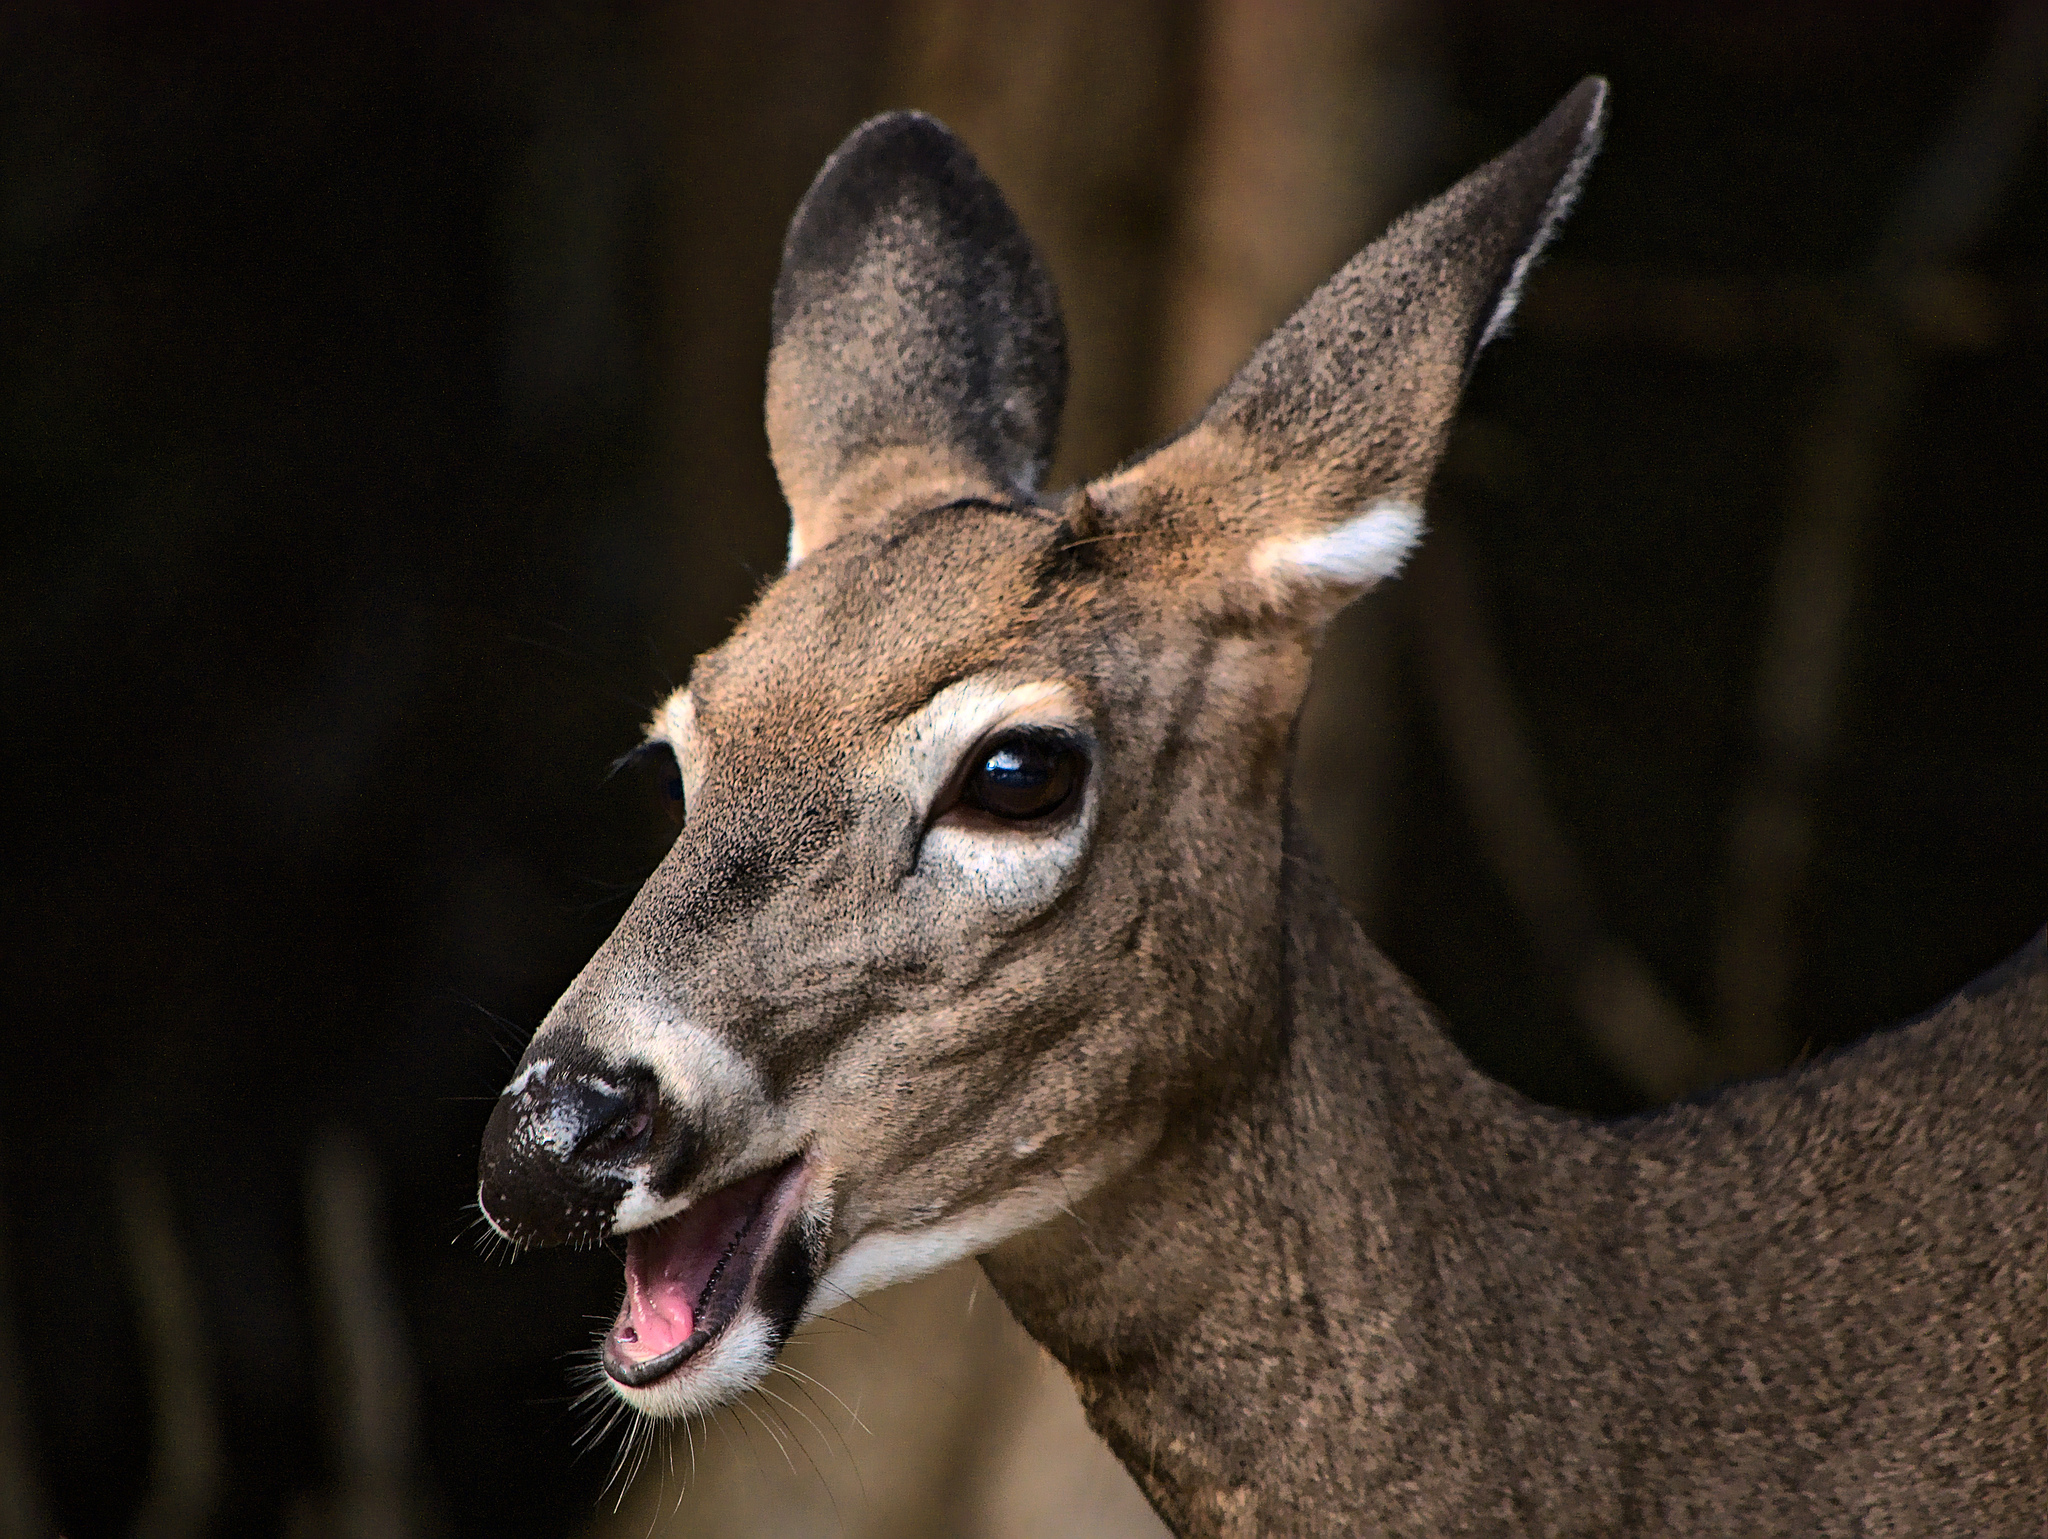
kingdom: Animalia
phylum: Chordata
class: Mammalia
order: Artiodactyla
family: Cervidae
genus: Odocoileus
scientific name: Odocoileus virginianus
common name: White-tailed deer
